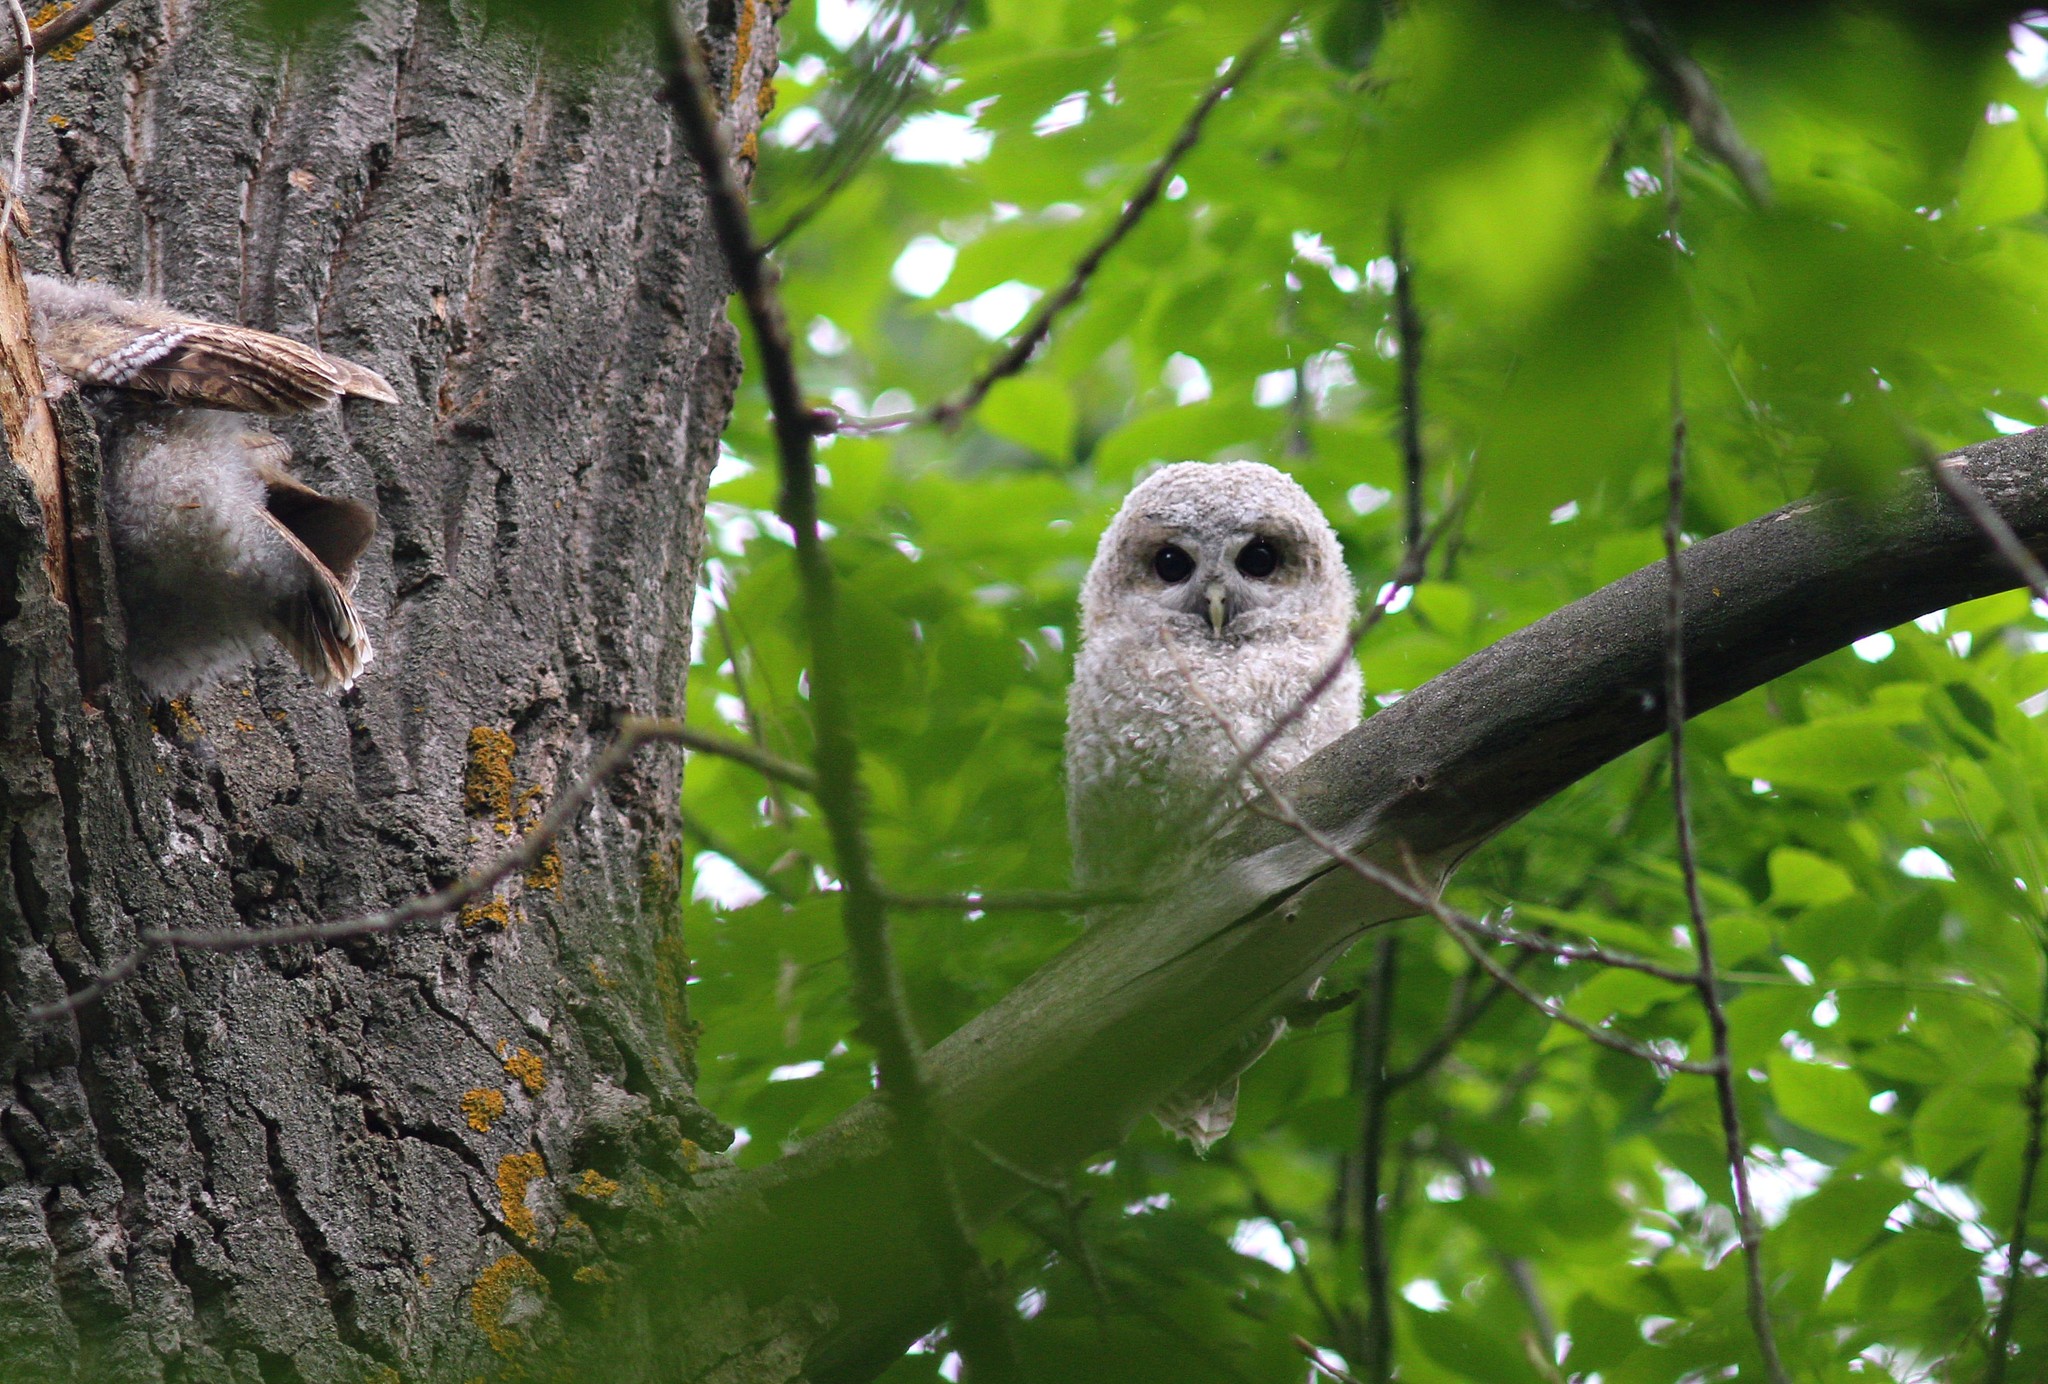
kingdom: Animalia
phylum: Chordata
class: Aves
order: Strigiformes
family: Strigidae
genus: Strix
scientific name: Strix aluco
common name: Tawny owl
